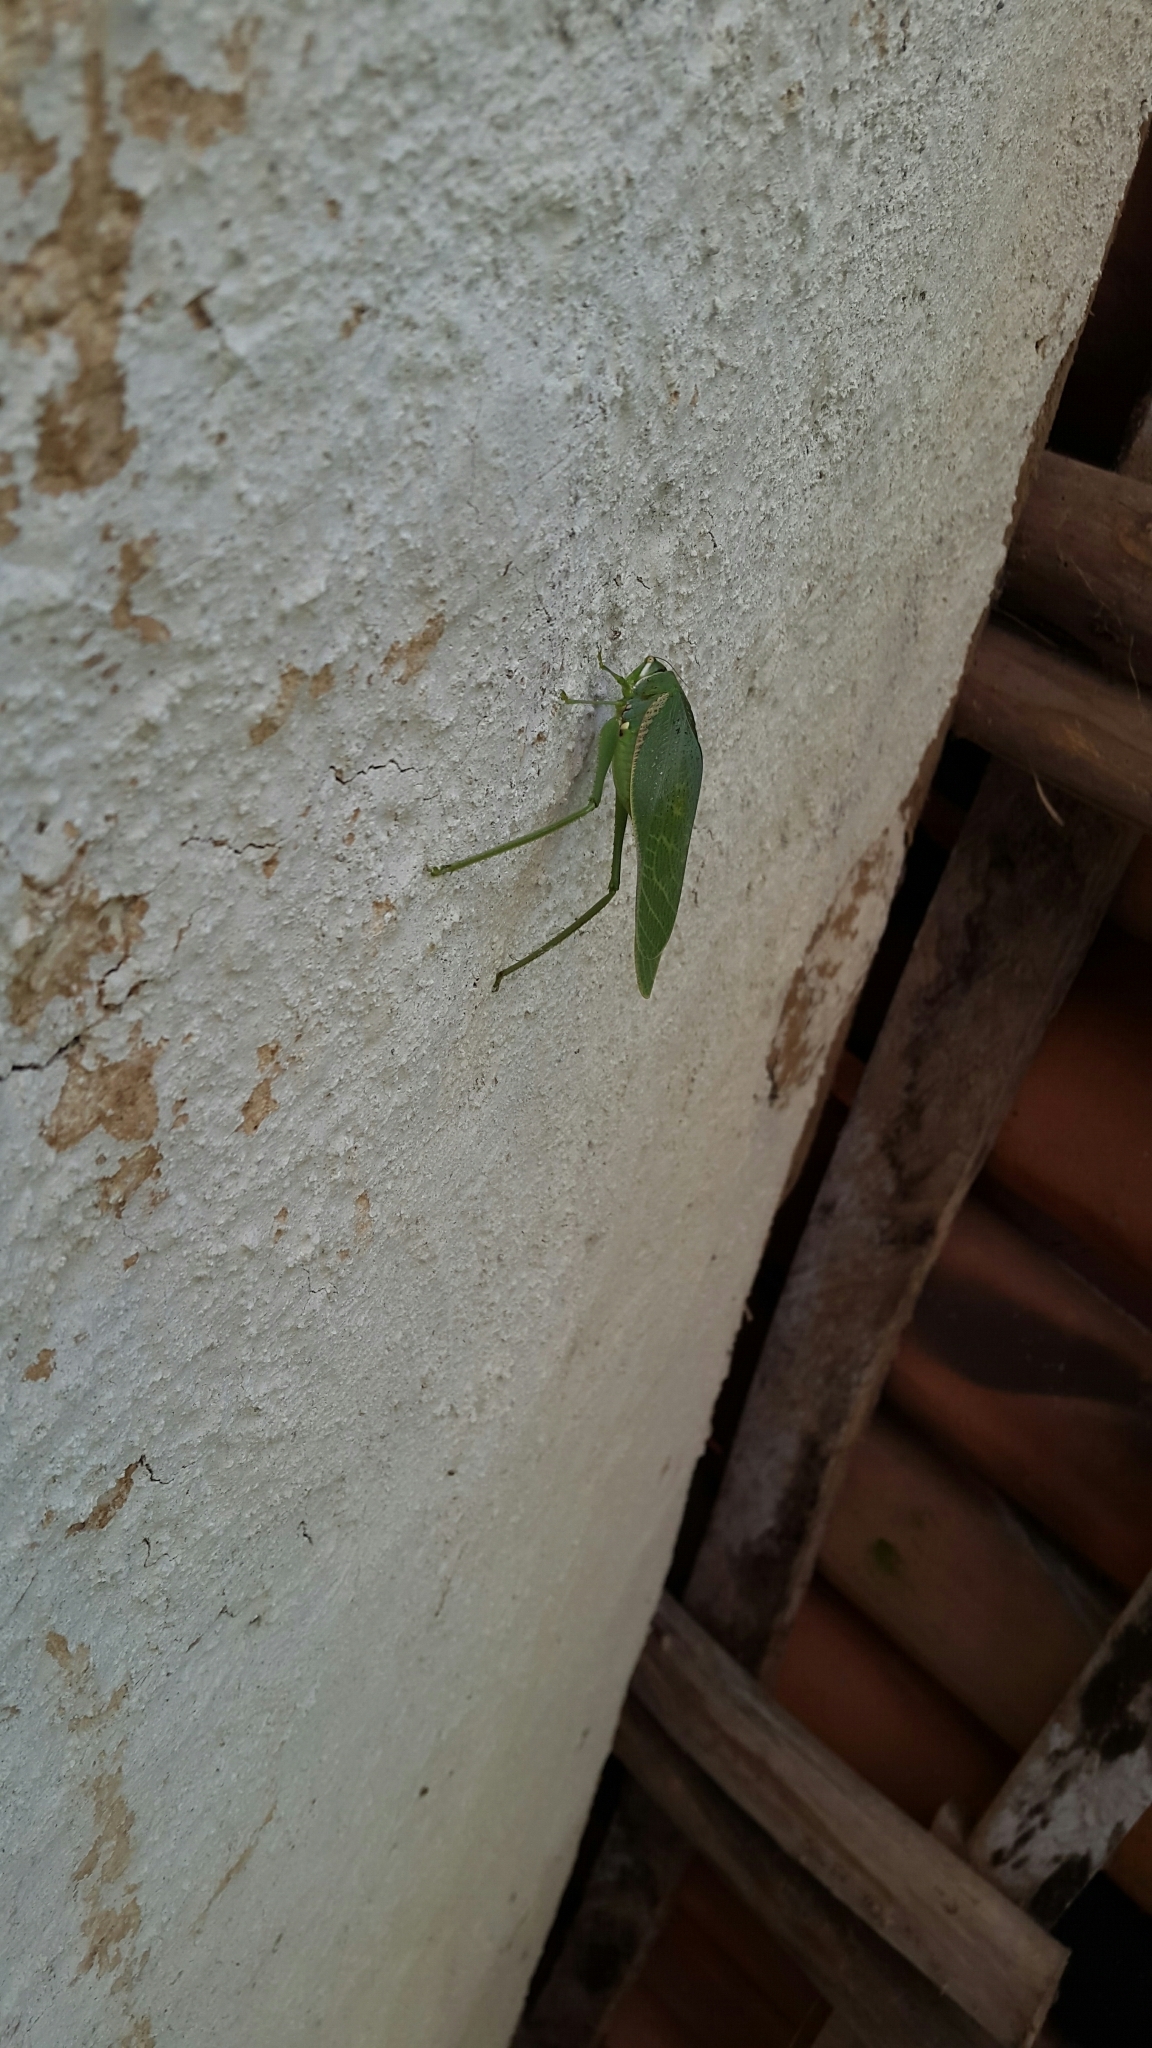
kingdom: Animalia
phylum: Arthropoda
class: Insecta
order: Orthoptera
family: Tettigoniidae
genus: Philophyllia
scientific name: Philophyllia guttulata
